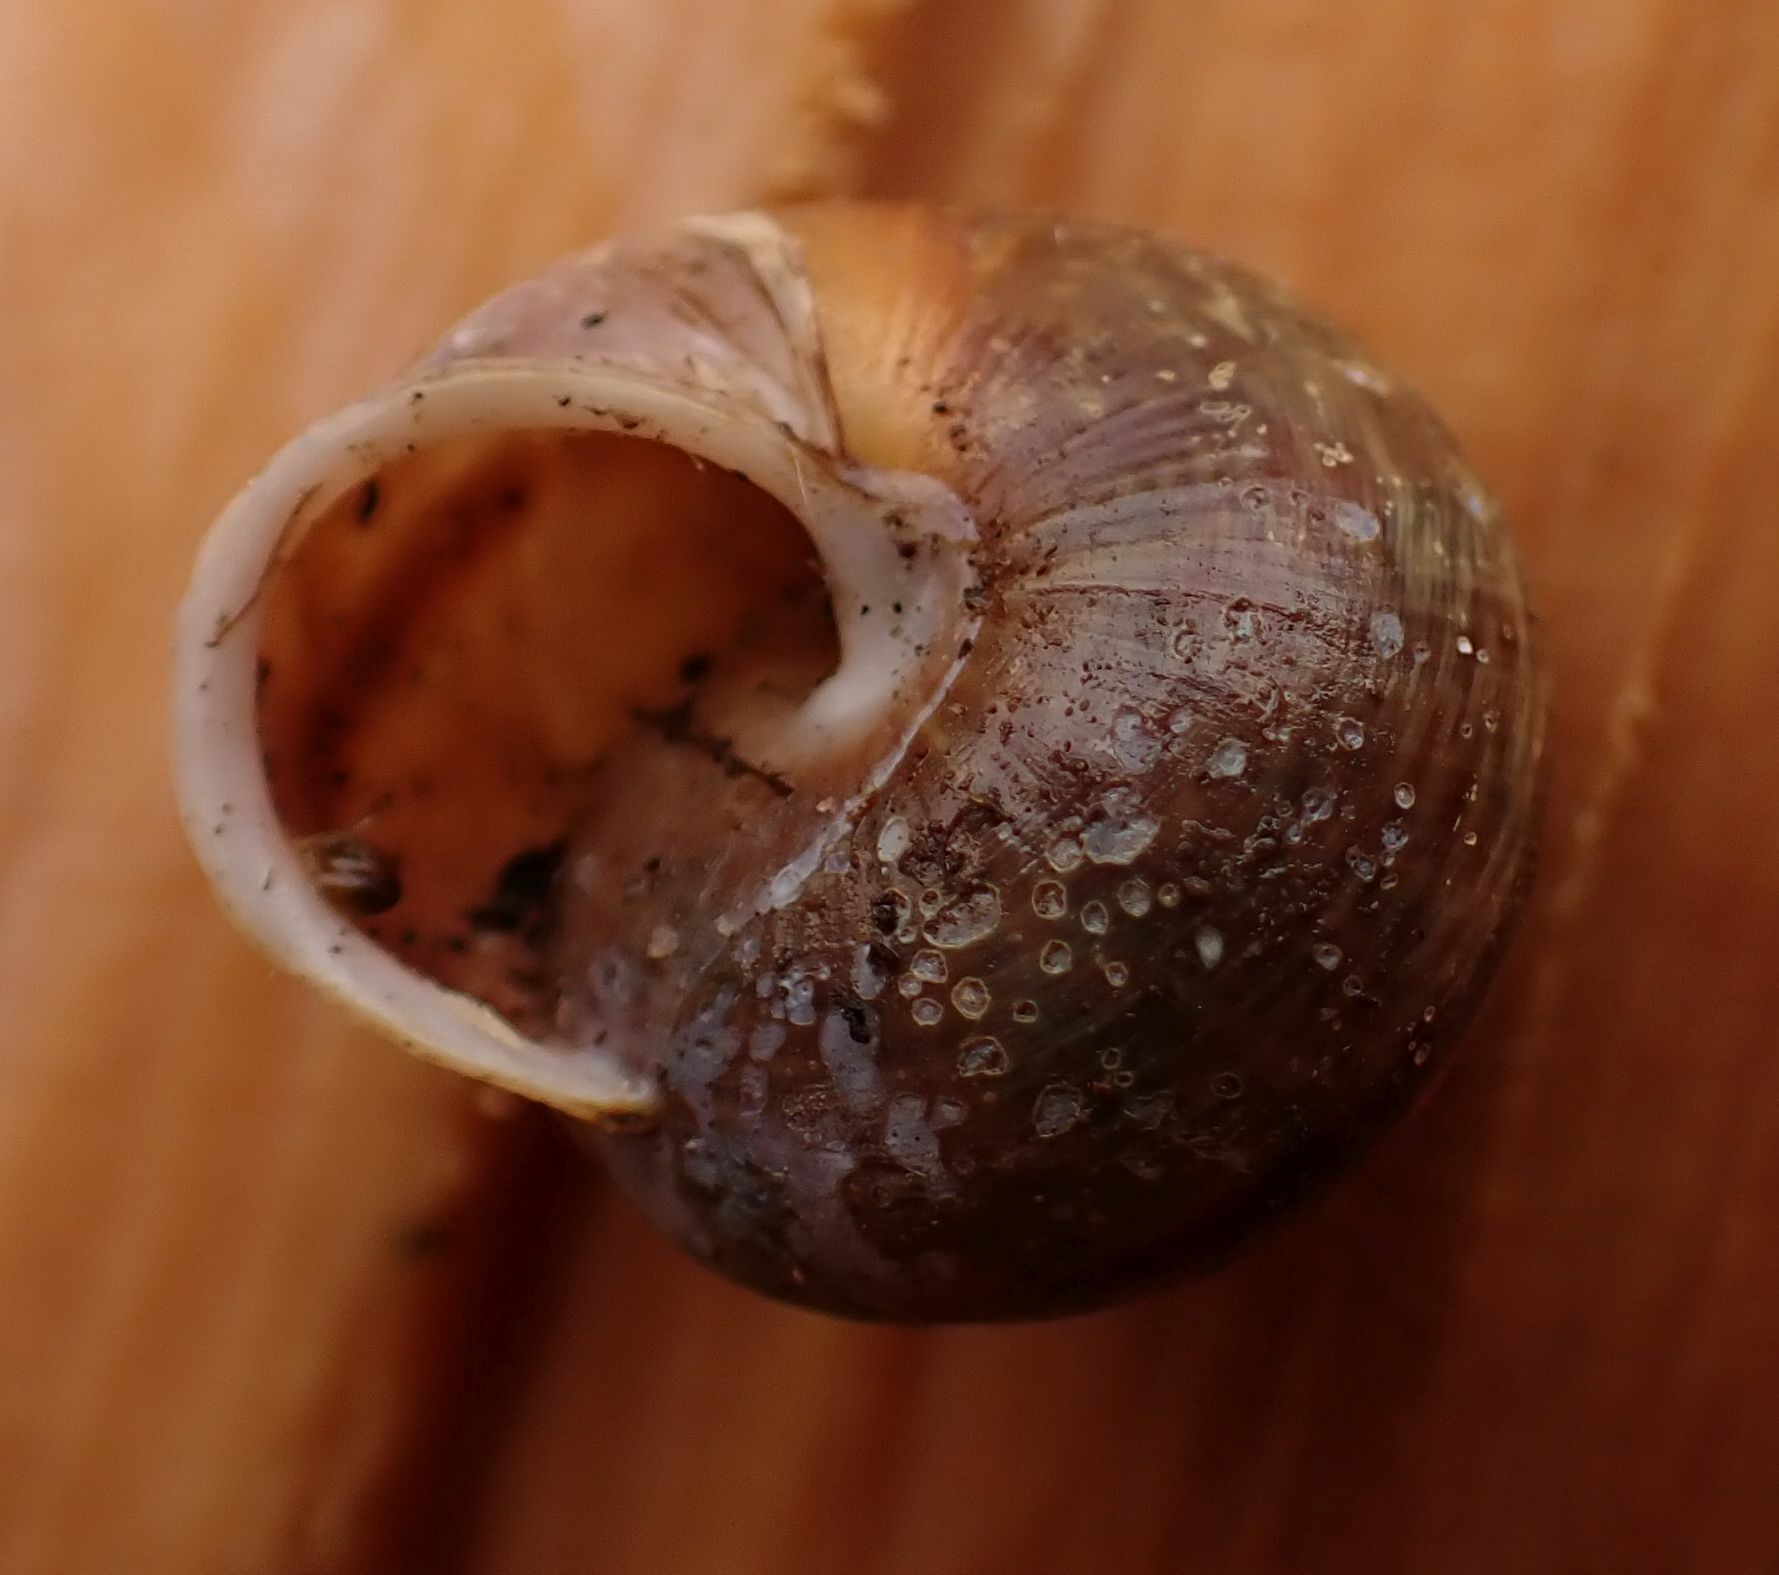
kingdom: Animalia
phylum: Mollusca
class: Gastropoda
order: Stylommatophora
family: Helicidae
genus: Arianta
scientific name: Arianta arbustorum
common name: Copse snail
